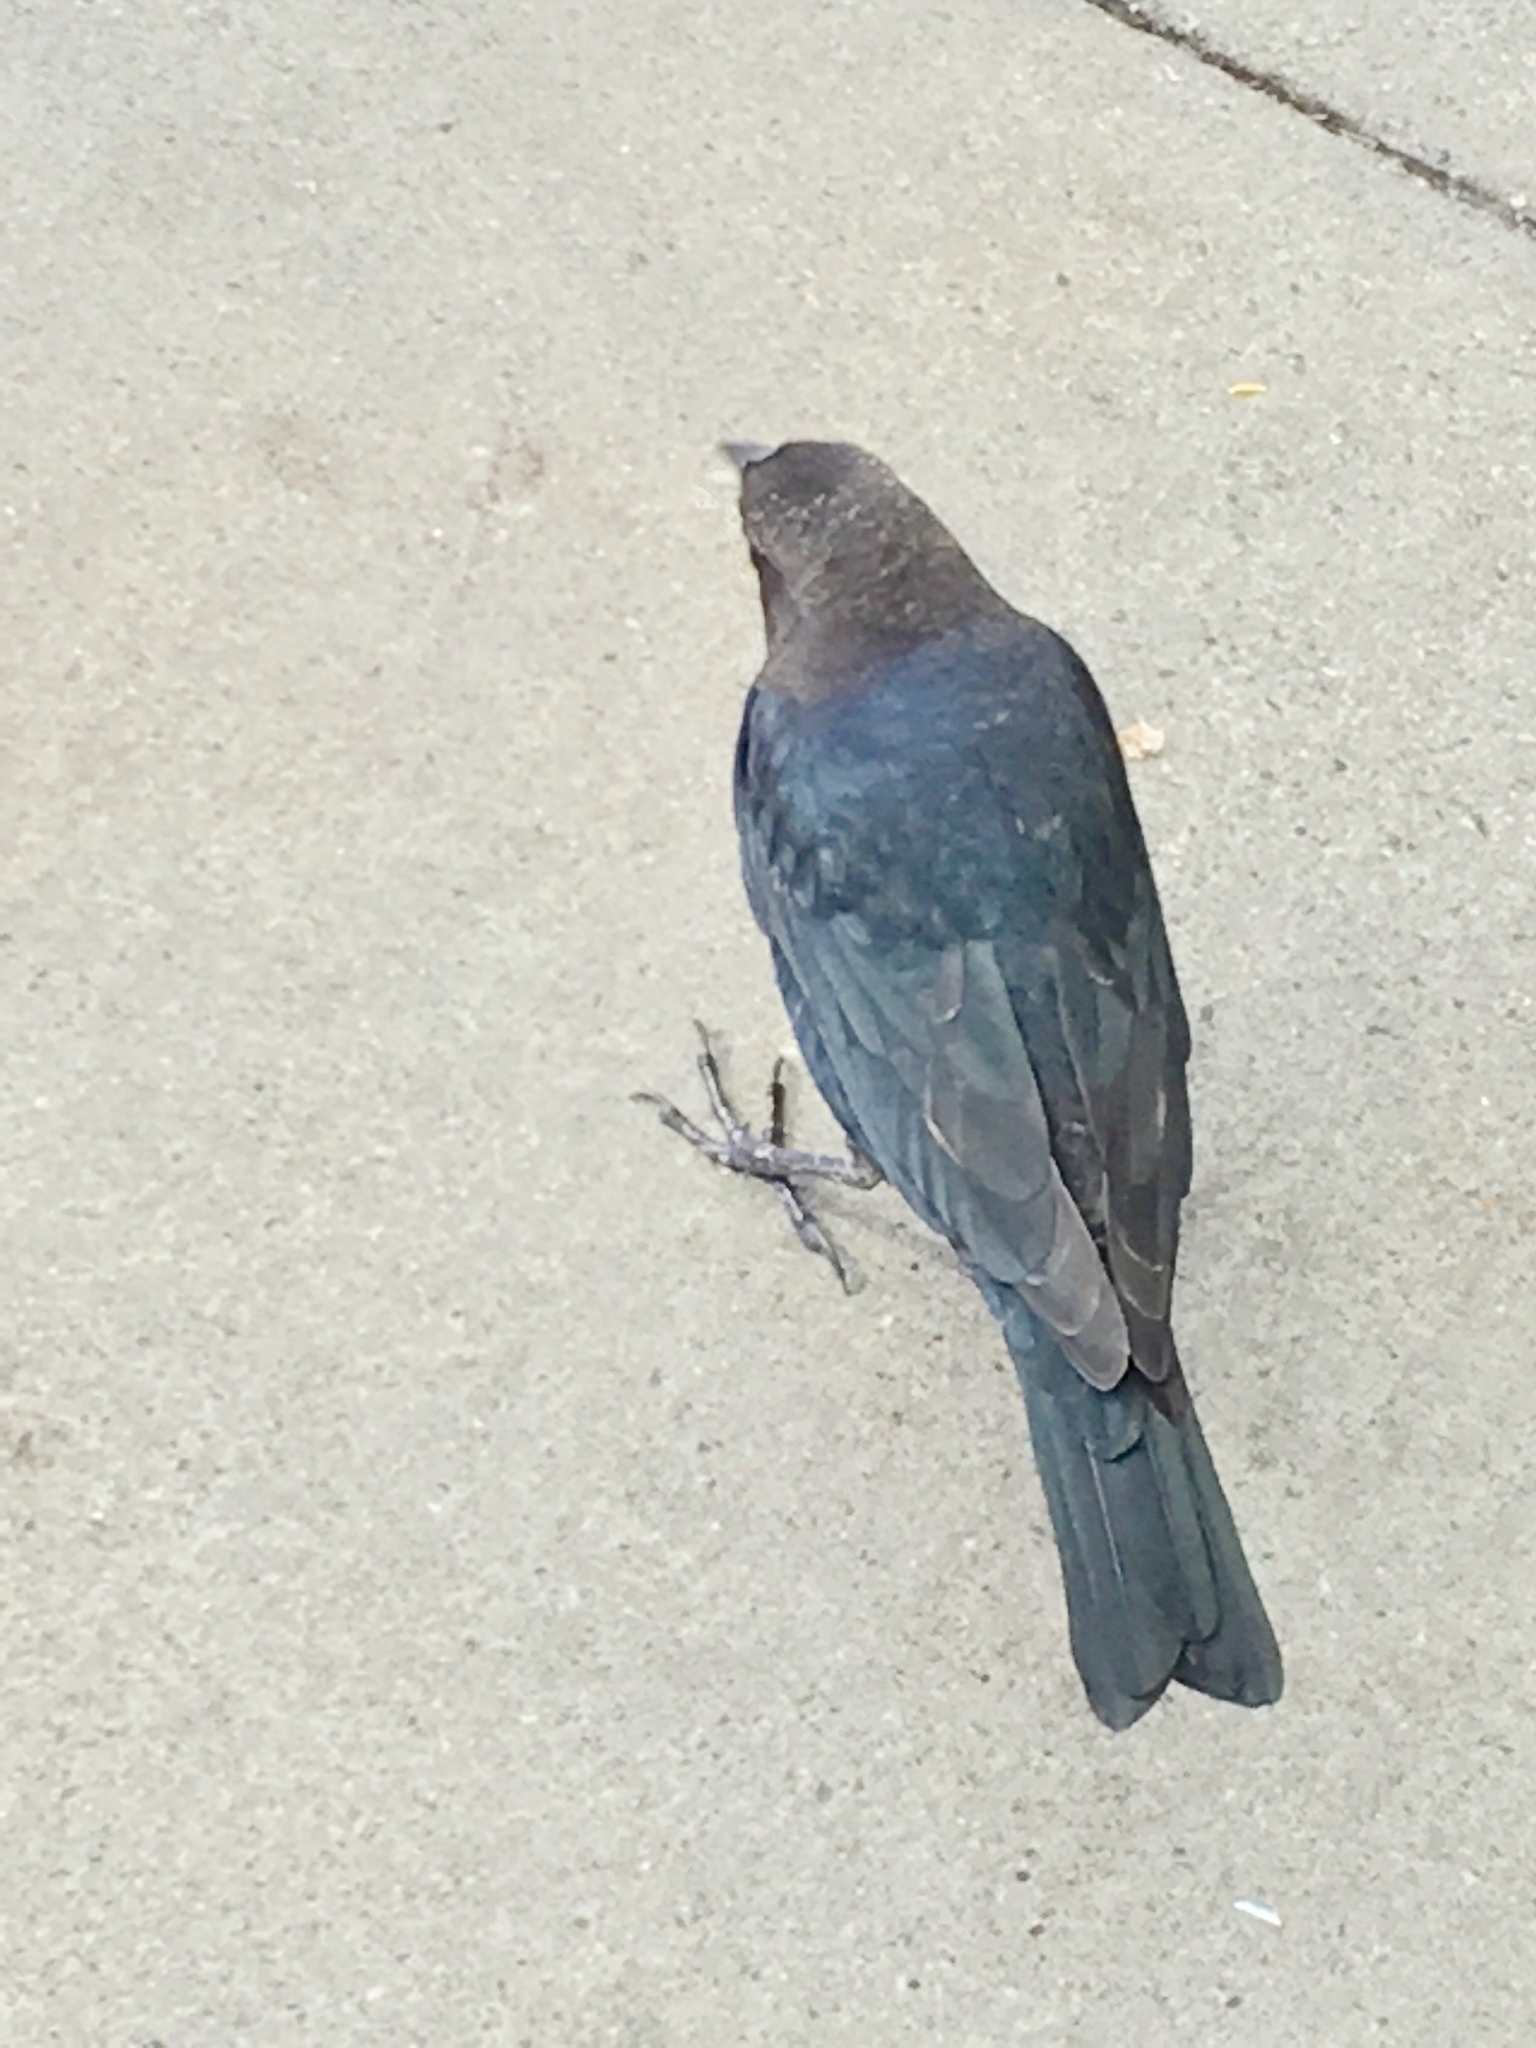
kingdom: Animalia
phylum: Chordata
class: Aves
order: Passeriformes
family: Icteridae
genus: Molothrus
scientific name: Molothrus ater
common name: Brown-headed cowbird
